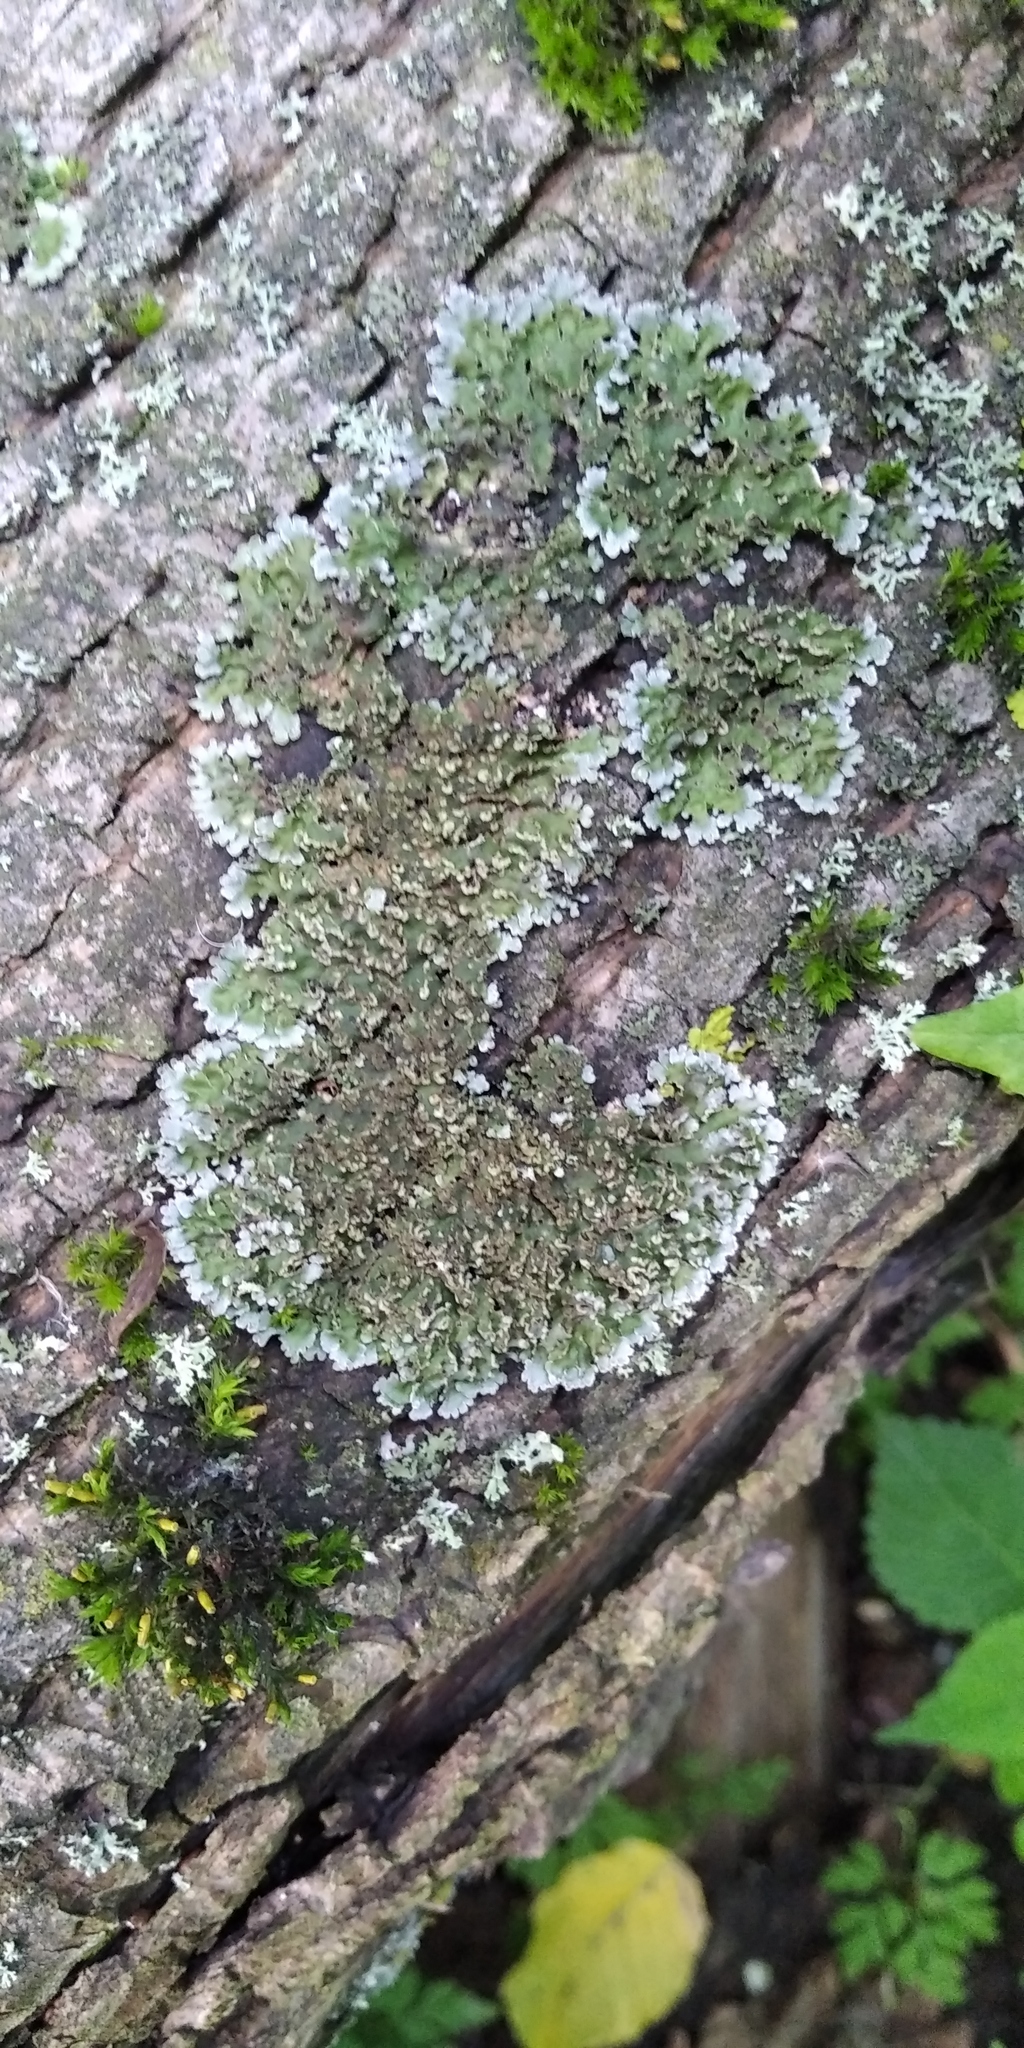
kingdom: Fungi
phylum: Ascomycota
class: Lecanoromycetes
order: Caliciales
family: Physciaceae
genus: Physconia
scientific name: Physconia enteroxantha
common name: Yellow-edged frost lichen
